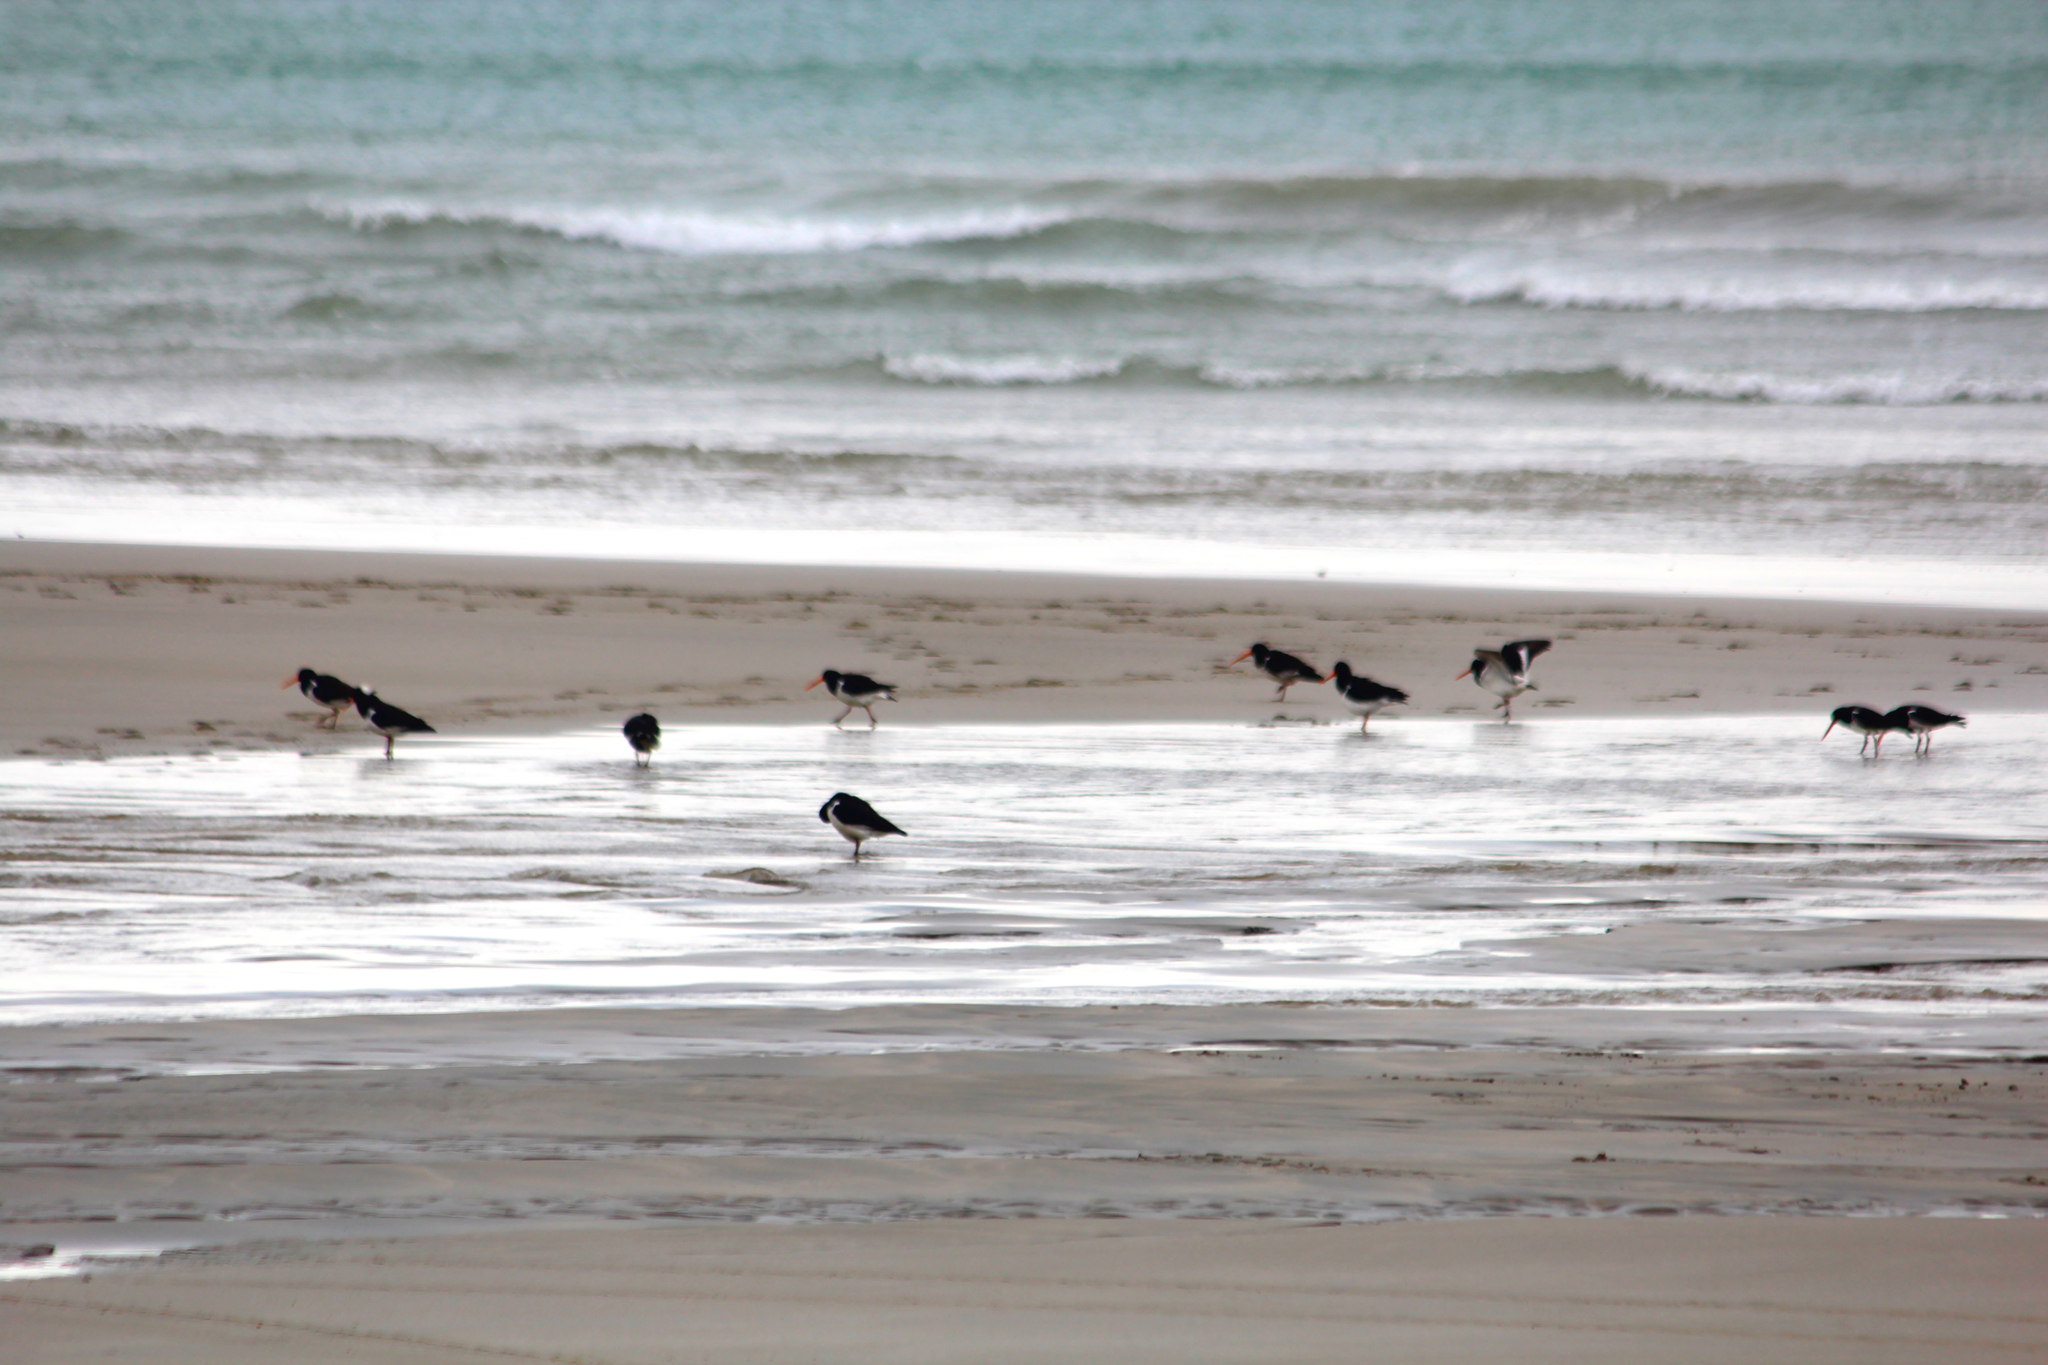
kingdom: Animalia
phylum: Chordata
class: Aves
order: Charadriiformes
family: Haematopodidae
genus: Haematopus
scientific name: Haematopus finschi
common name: South island oystercatcher
